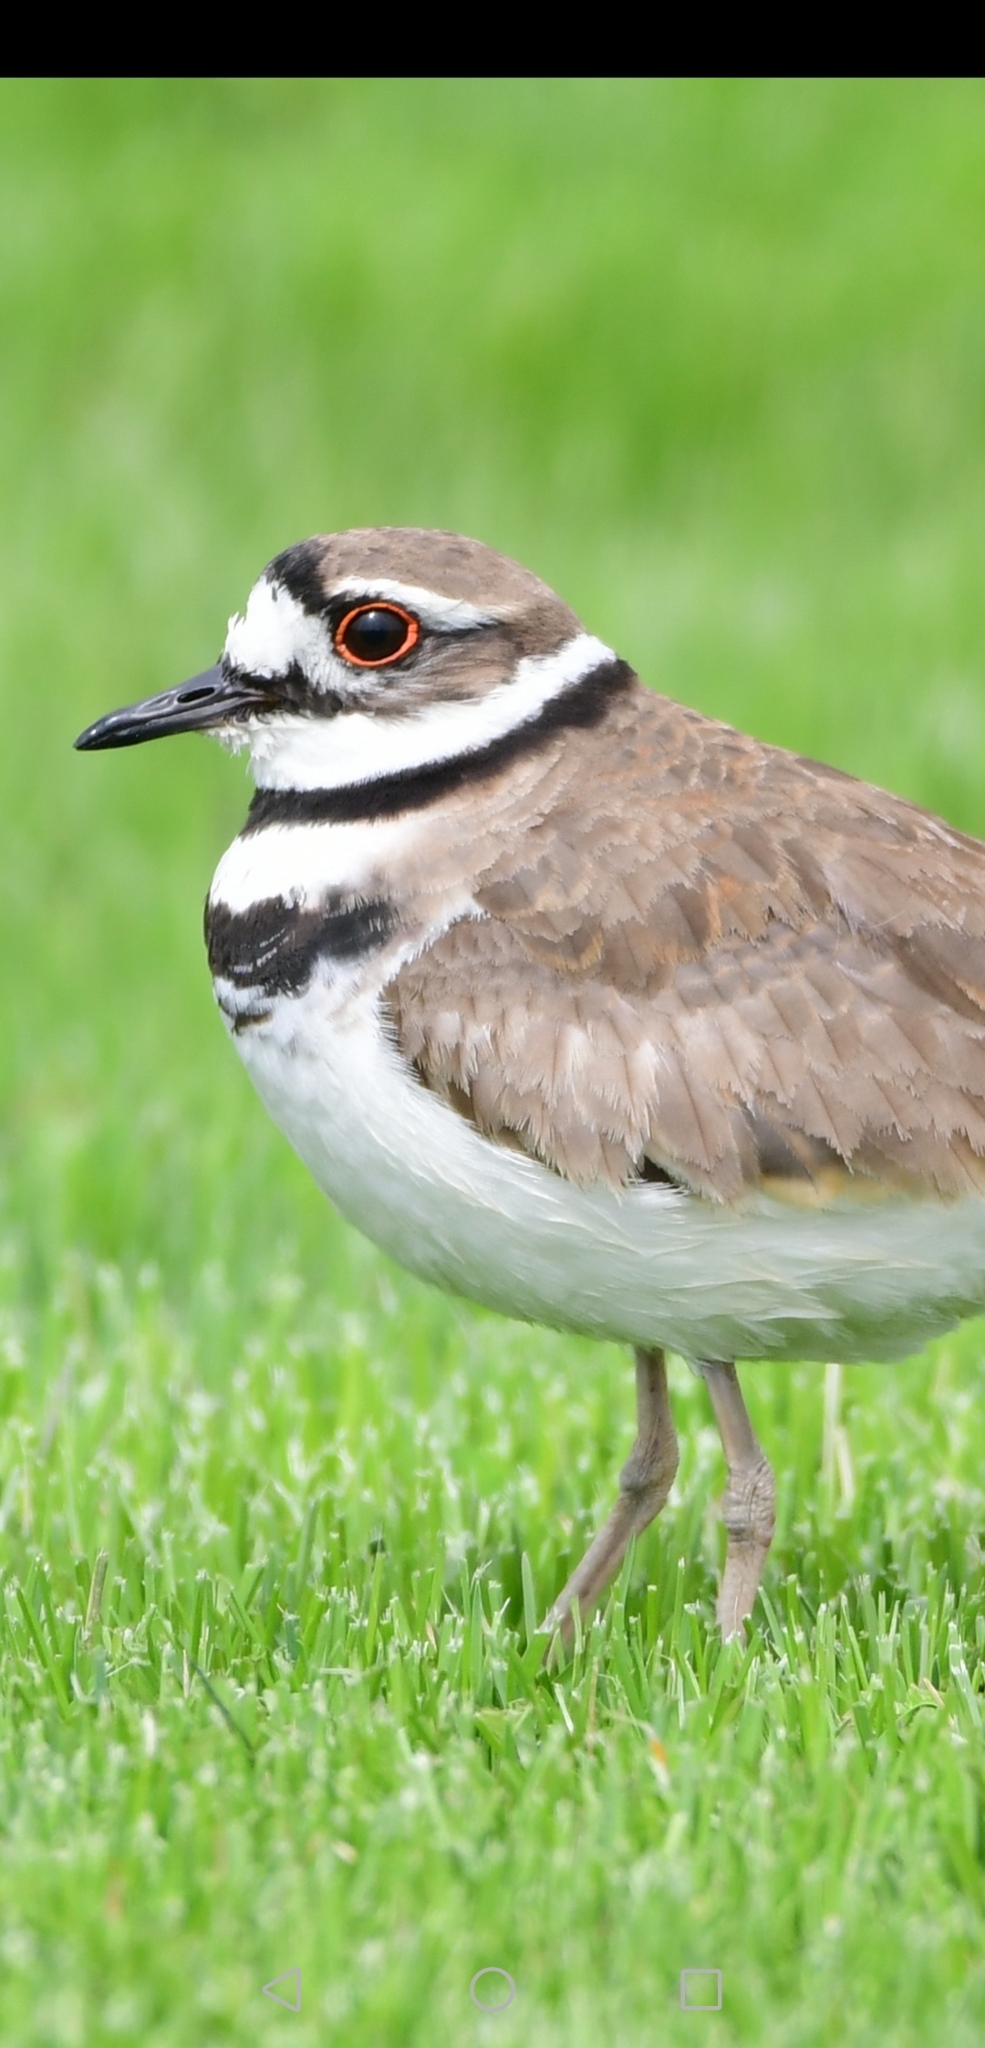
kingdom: Animalia
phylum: Chordata
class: Aves
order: Charadriiformes
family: Charadriidae
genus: Charadrius
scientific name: Charadrius vociferus
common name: Killdeer
